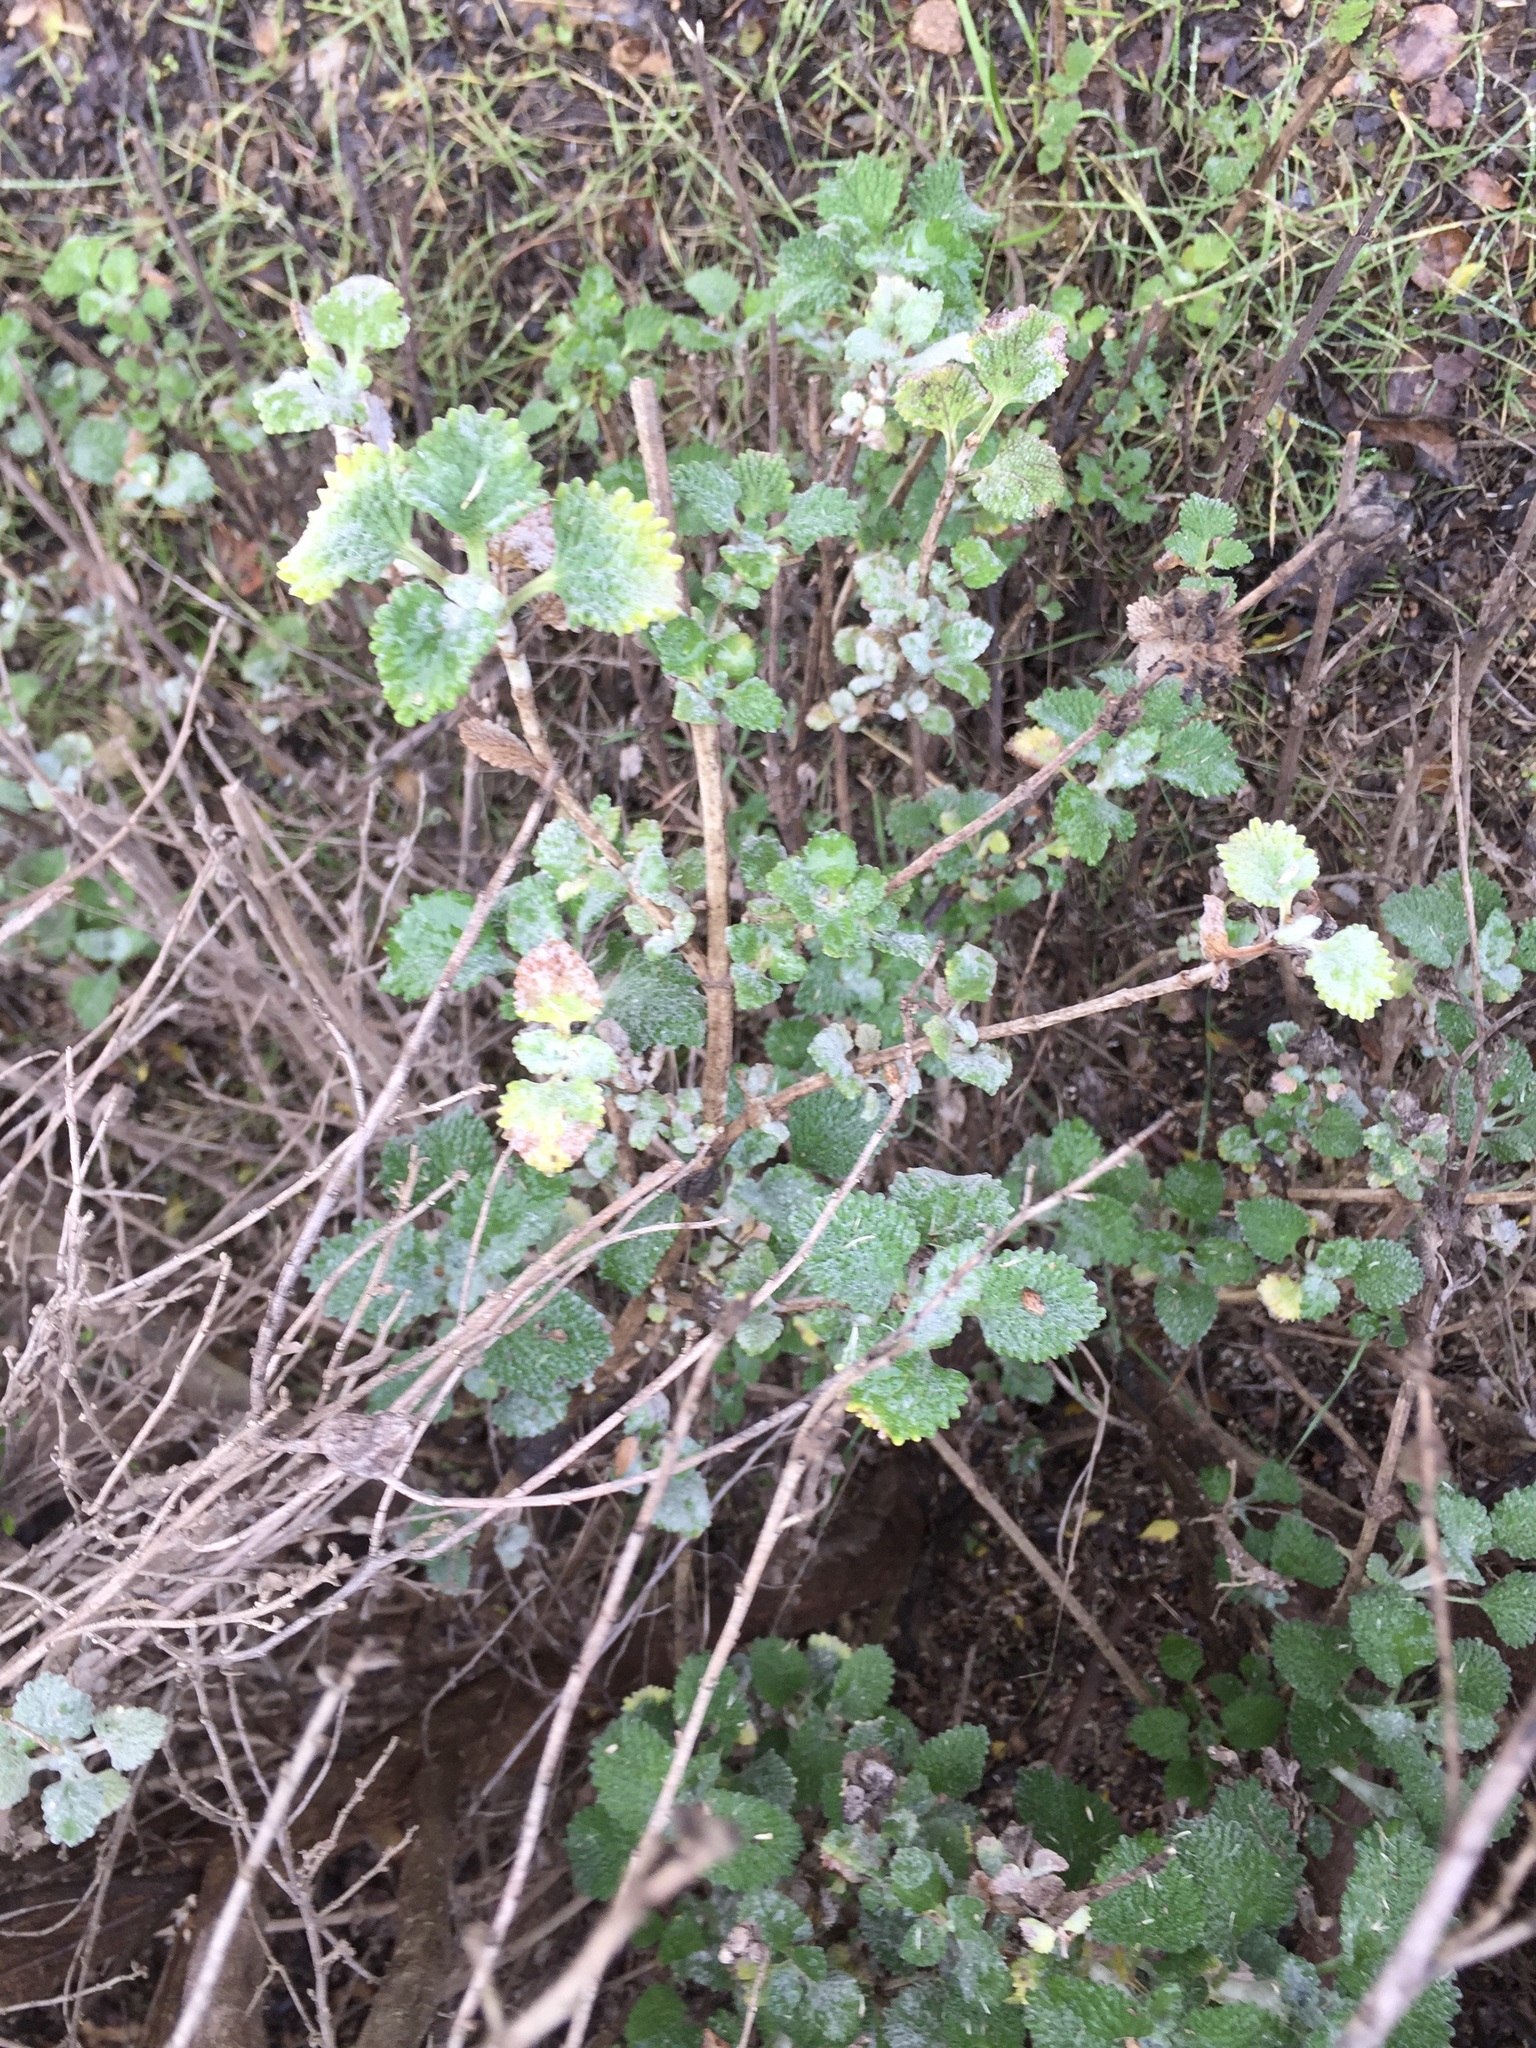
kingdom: Plantae
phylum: Tracheophyta
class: Magnoliopsida
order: Lamiales
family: Lamiaceae
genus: Marrubium
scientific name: Marrubium vulgare
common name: Horehound
